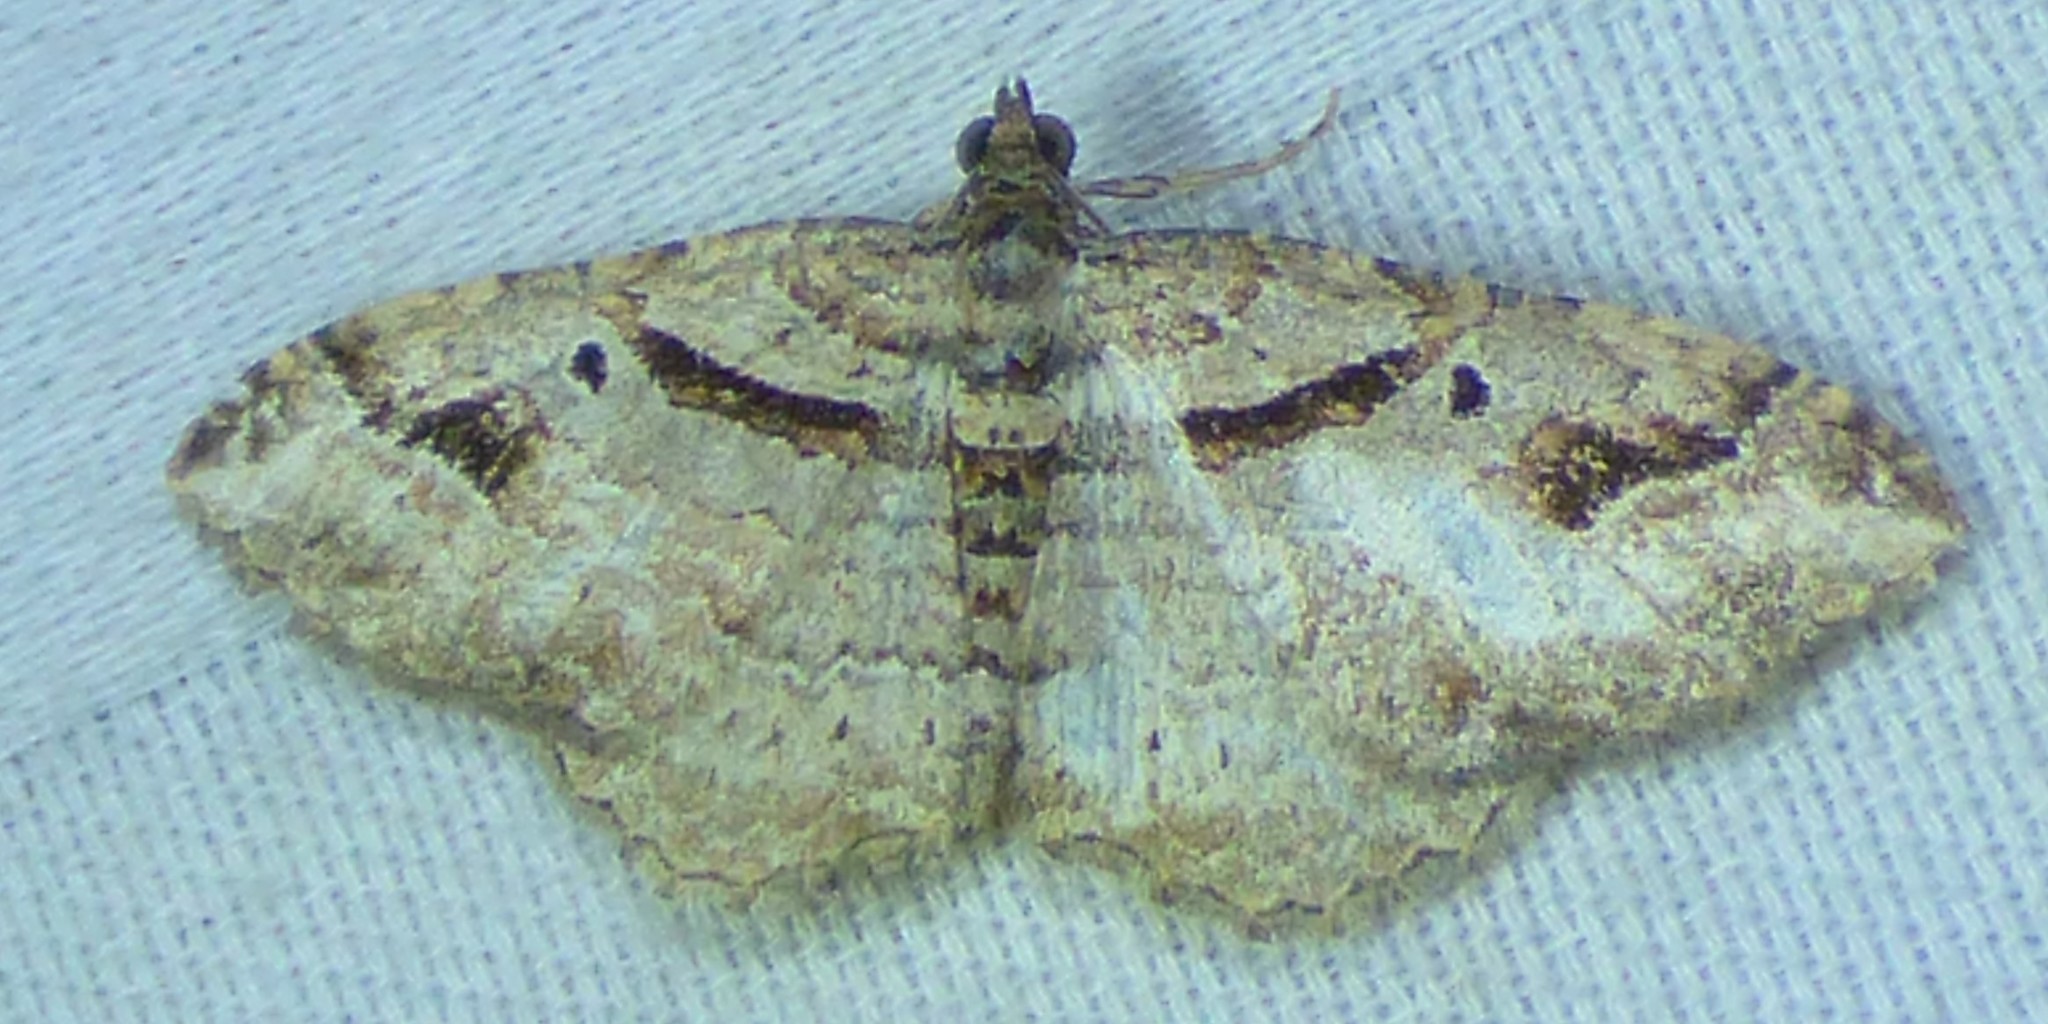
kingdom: Animalia
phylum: Arthropoda
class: Insecta
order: Lepidoptera
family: Geometridae
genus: Costaconvexa
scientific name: Costaconvexa centrostrigaria
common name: Bent-line carpet
